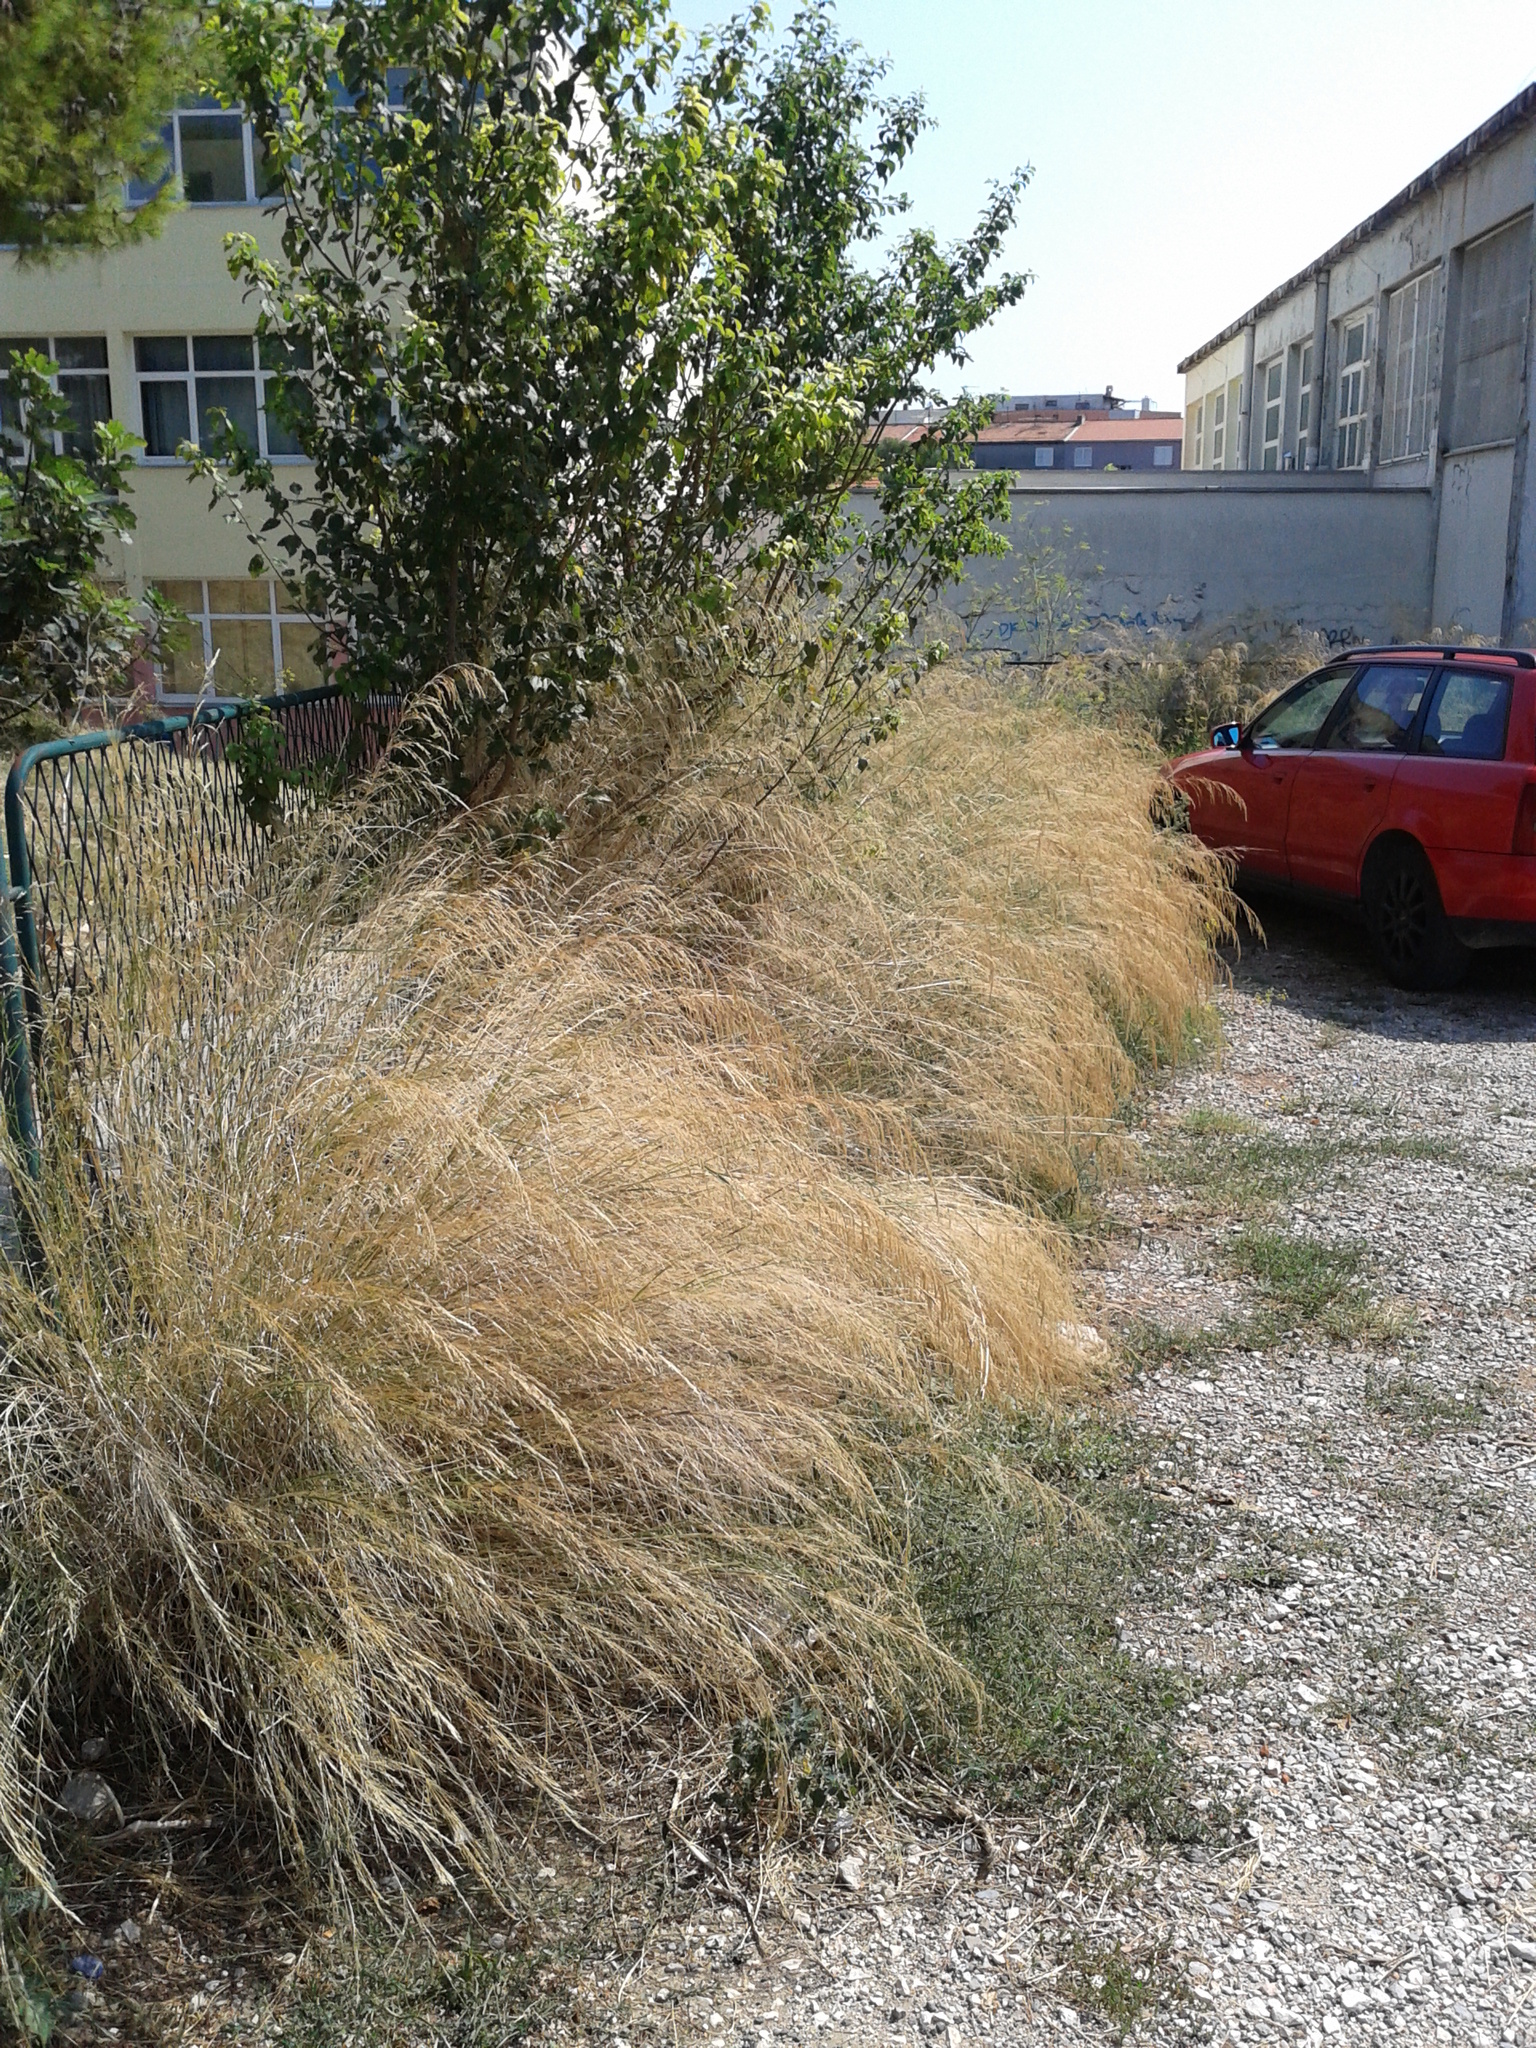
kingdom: Plantae
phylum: Tracheophyta
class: Liliopsida
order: Poales
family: Poaceae
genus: Oloptum
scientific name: Oloptum thomasii
